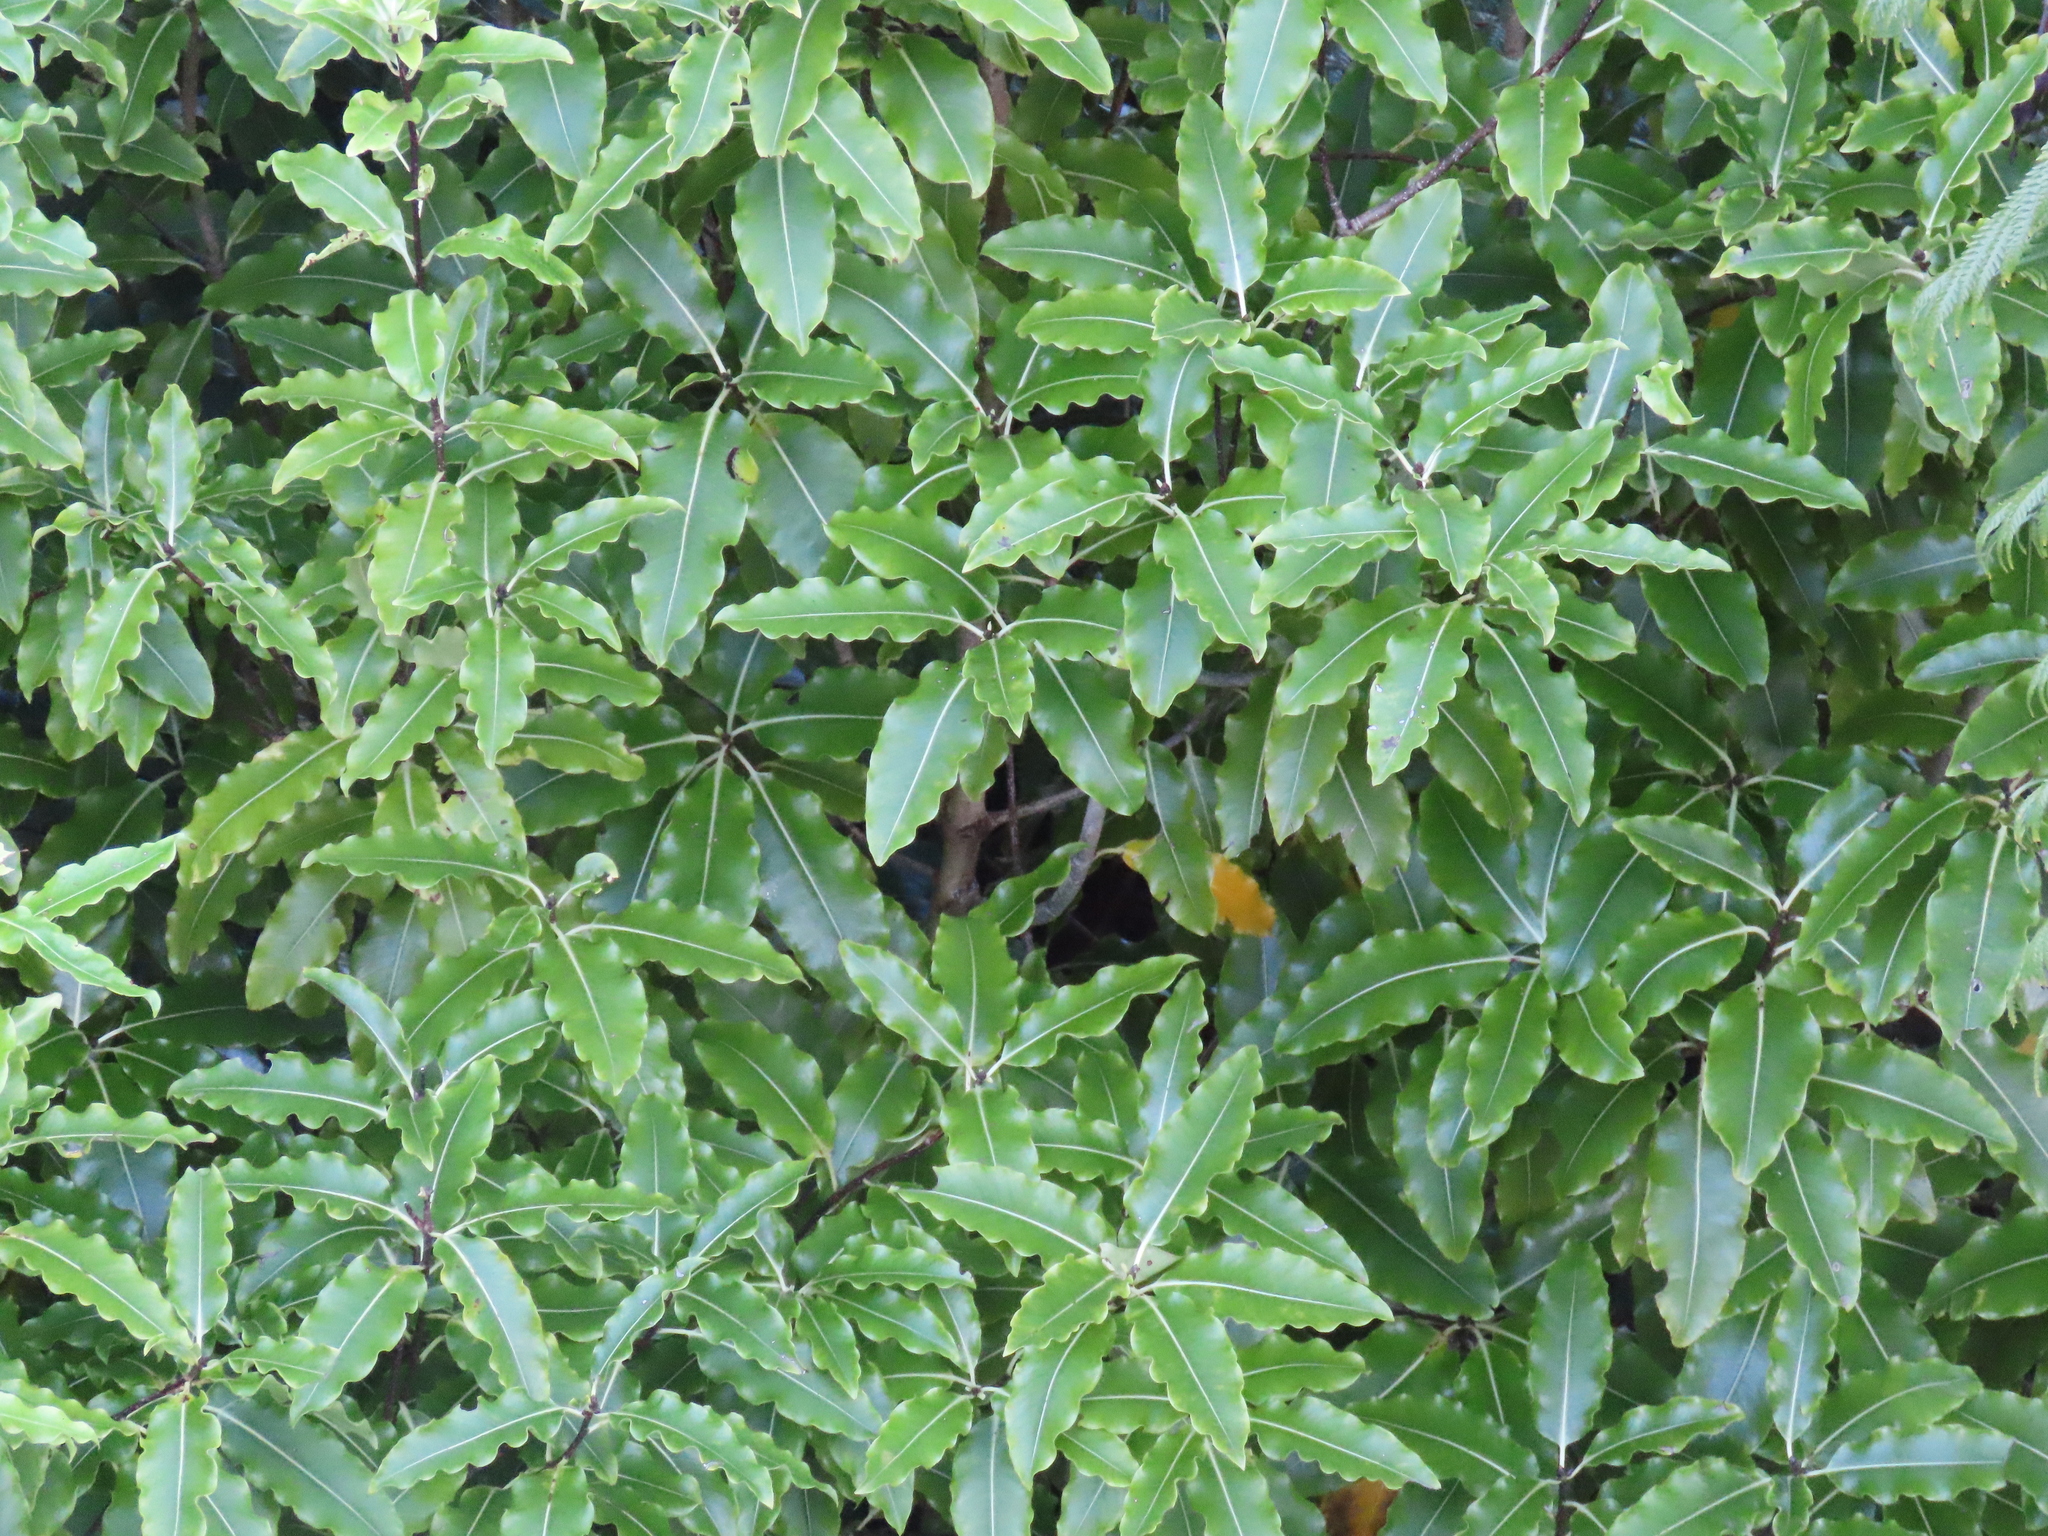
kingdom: Plantae
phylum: Tracheophyta
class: Magnoliopsida
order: Apiales
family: Pittosporaceae
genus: Pittosporum
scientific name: Pittosporum eugenioides
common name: Lemonwood
